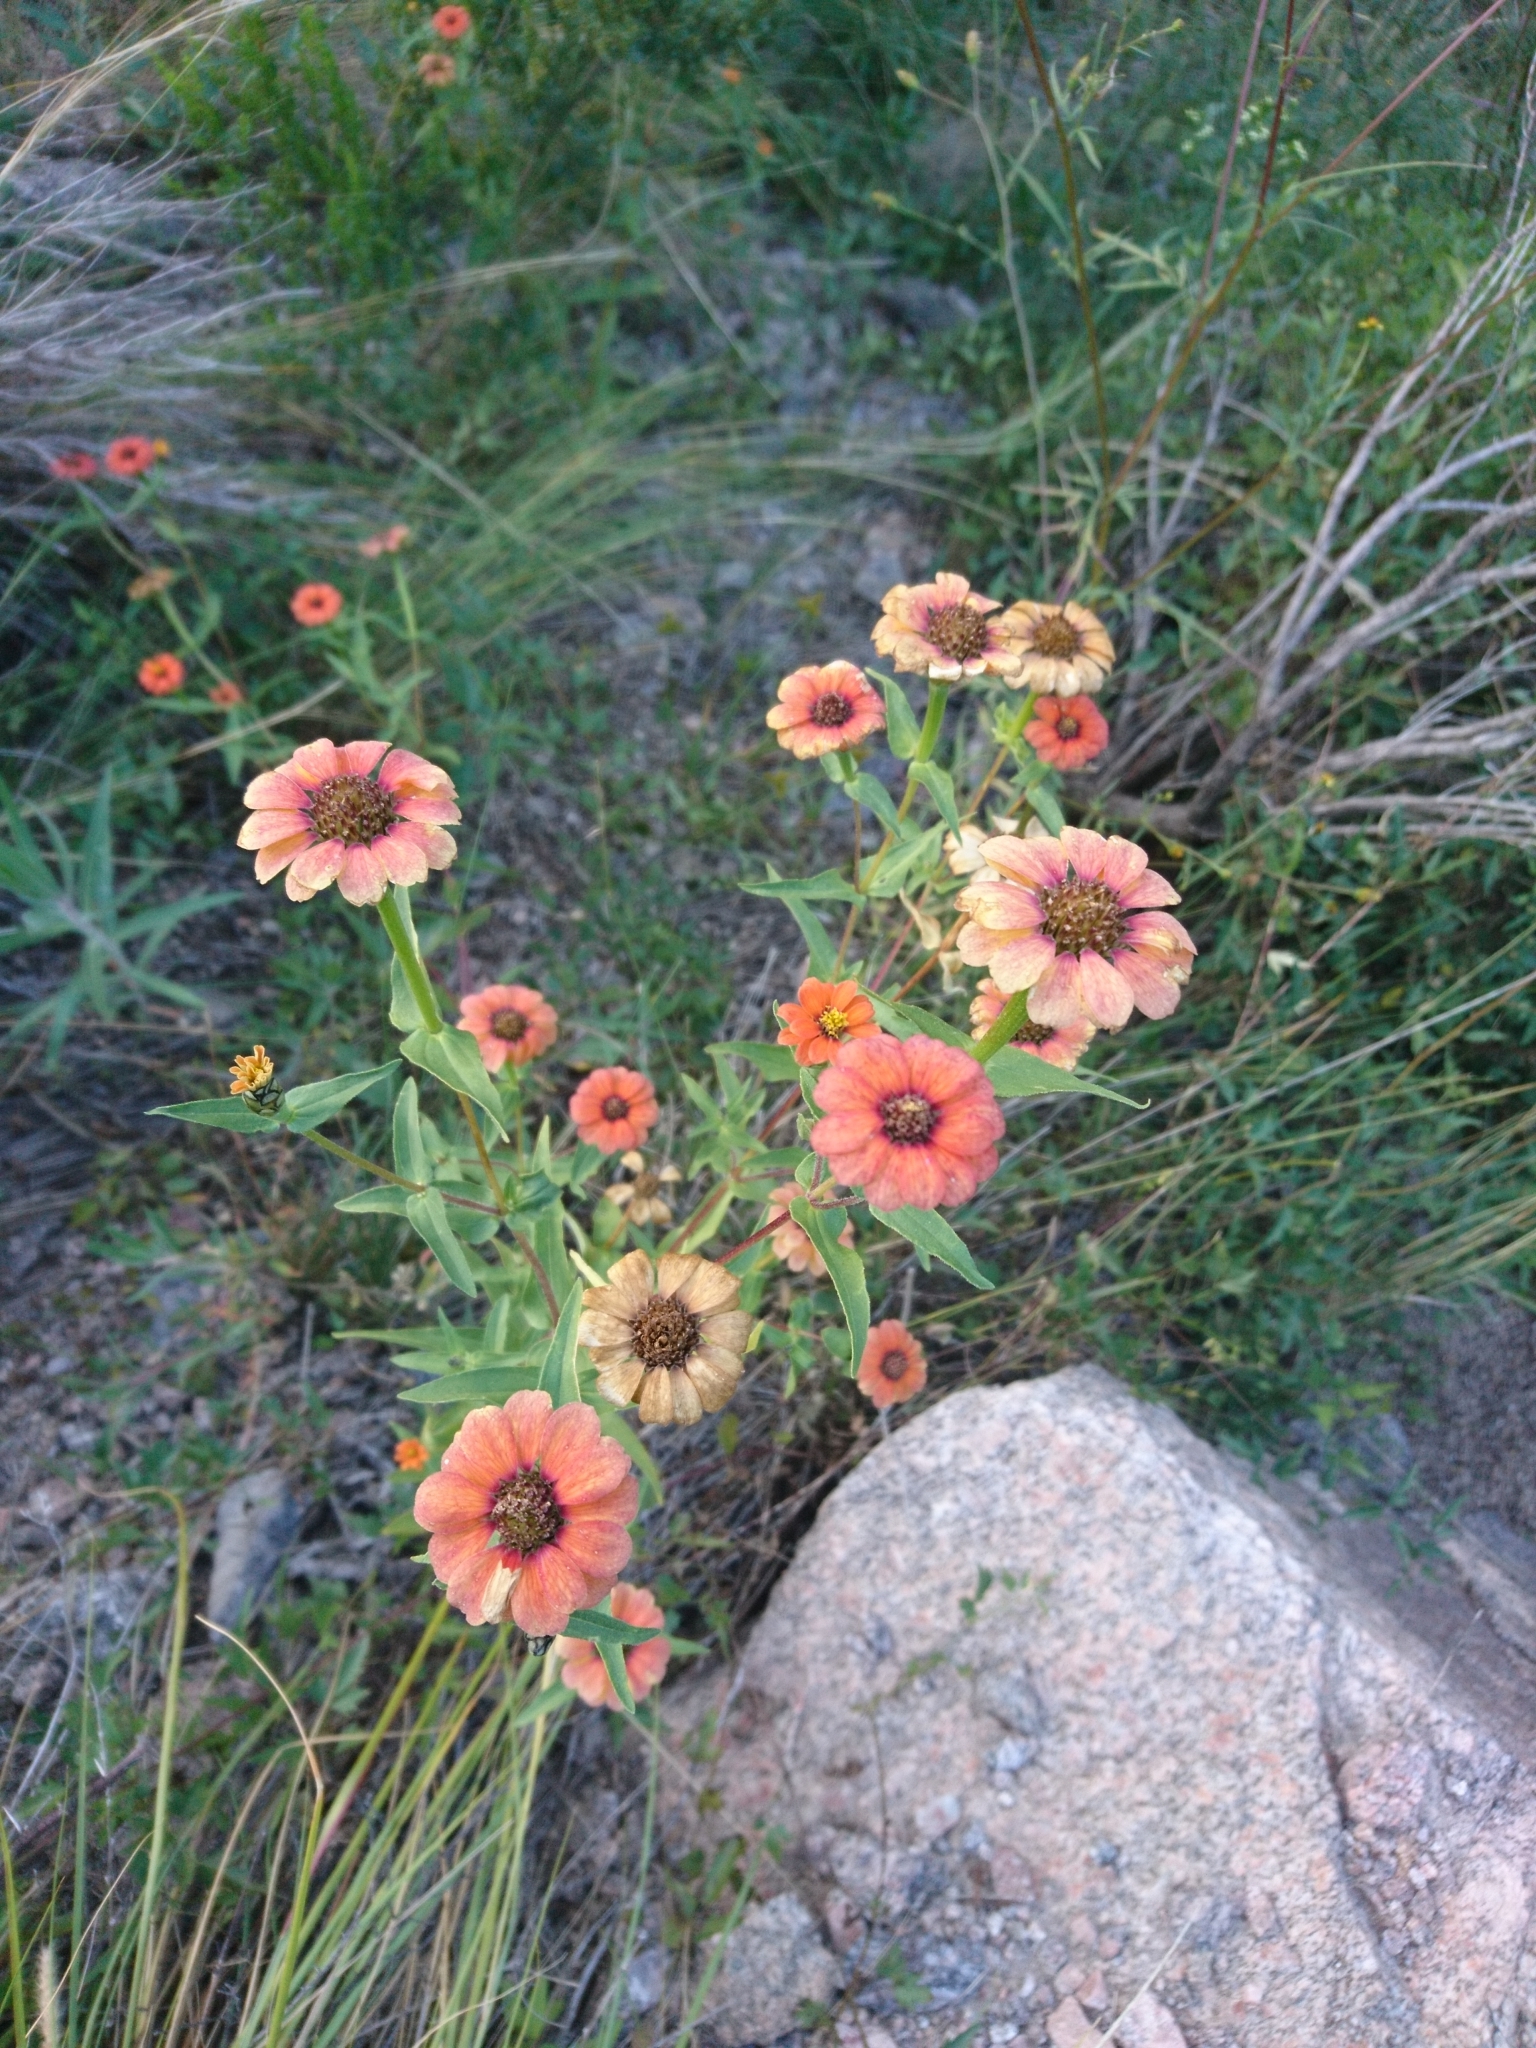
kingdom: Plantae
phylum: Tracheophyta
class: Magnoliopsida
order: Asterales
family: Asteraceae
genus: Zinnia
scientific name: Zinnia peruviana
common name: Peruvian zinnia
